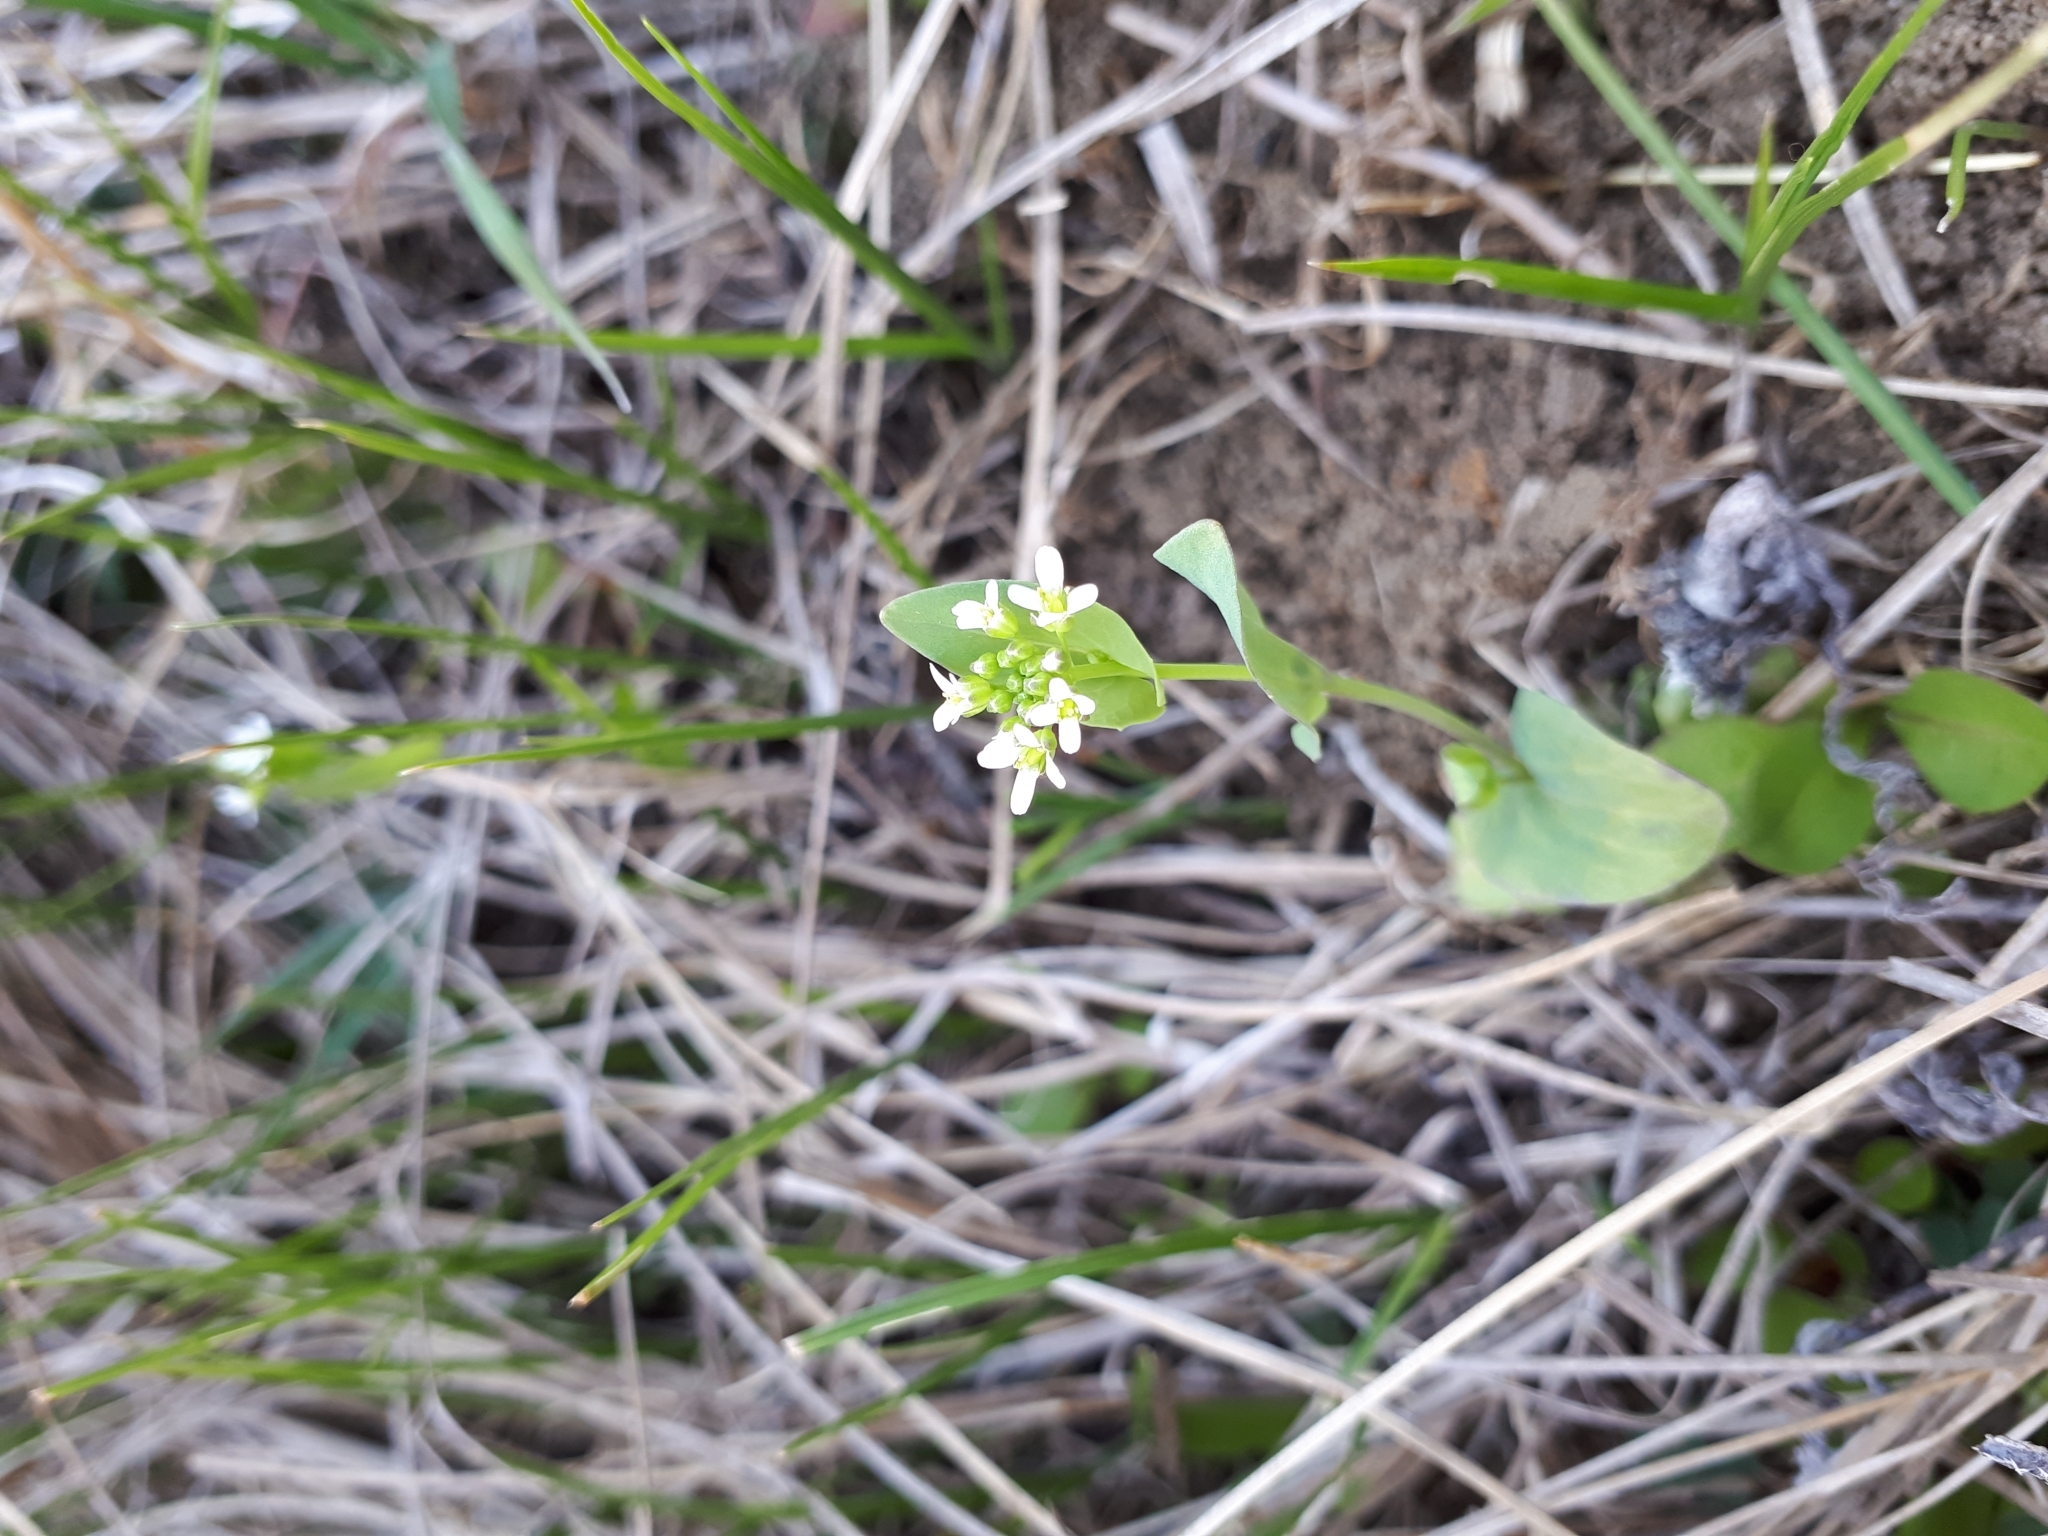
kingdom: Plantae
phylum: Tracheophyta
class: Magnoliopsida
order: Brassicales
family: Brassicaceae
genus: Noccaea
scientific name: Noccaea perfoliata
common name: Perfoliate pennycress
